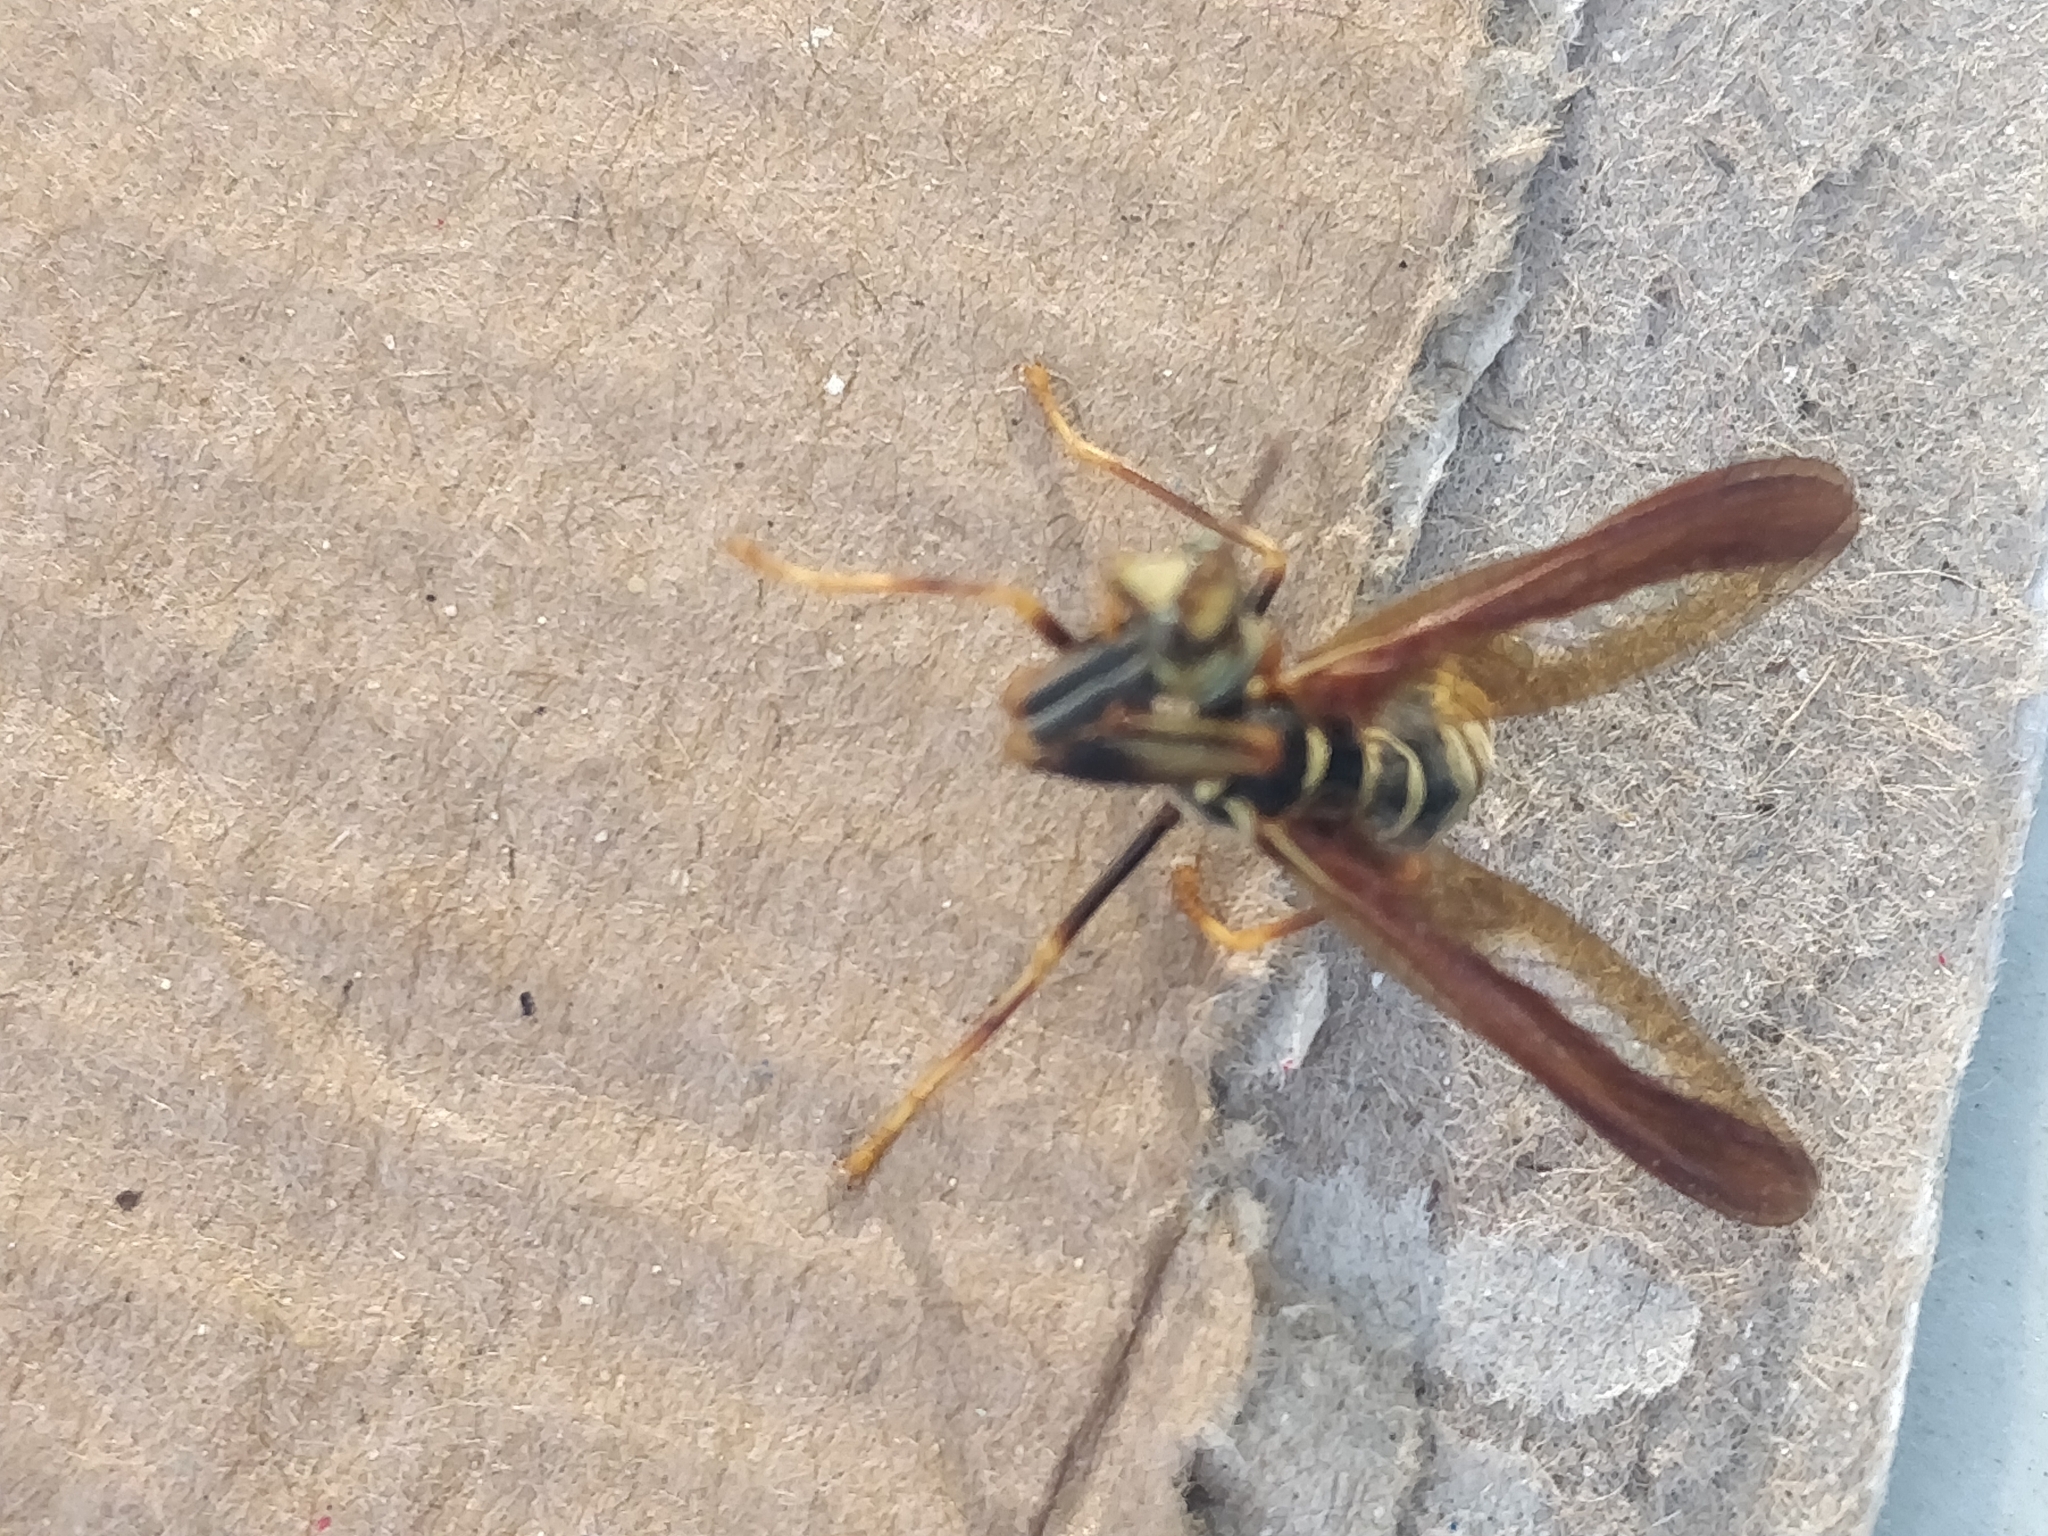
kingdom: Animalia
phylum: Arthropoda
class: Insecta
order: Neuroptera
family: Mantispidae
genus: Climaciella
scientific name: Climaciella brunnea
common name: Brown wasp mantidfly
